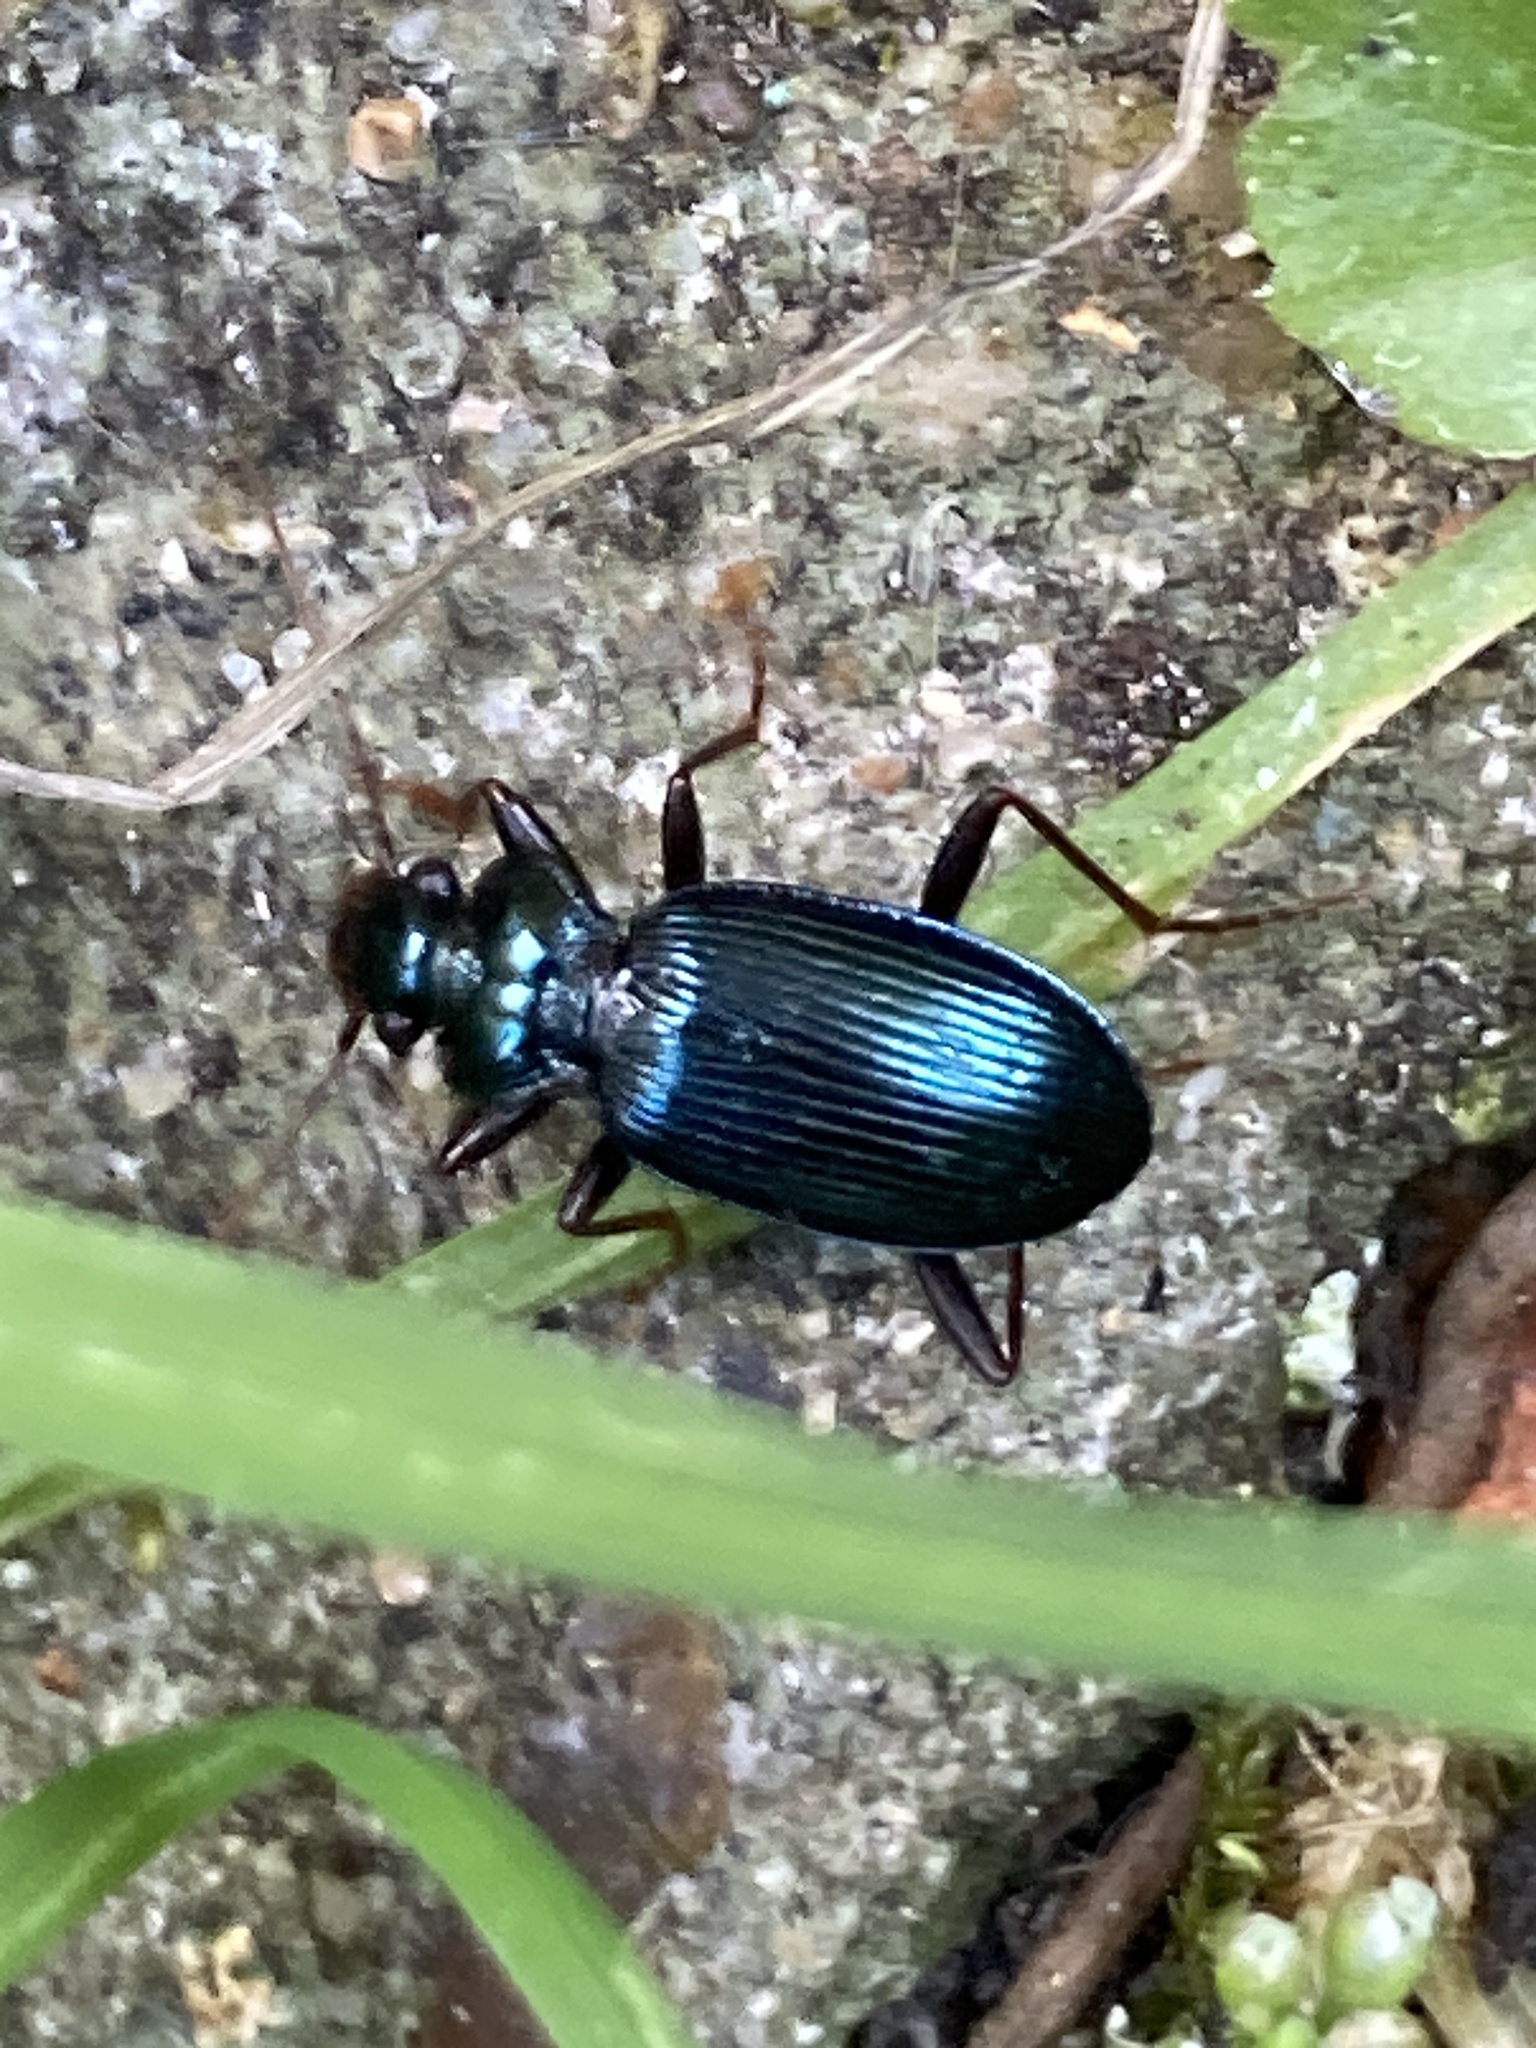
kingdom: Animalia
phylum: Arthropoda
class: Insecta
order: Coleoptera
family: Carabidae
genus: Leistus
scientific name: Leistus spinibarbis
